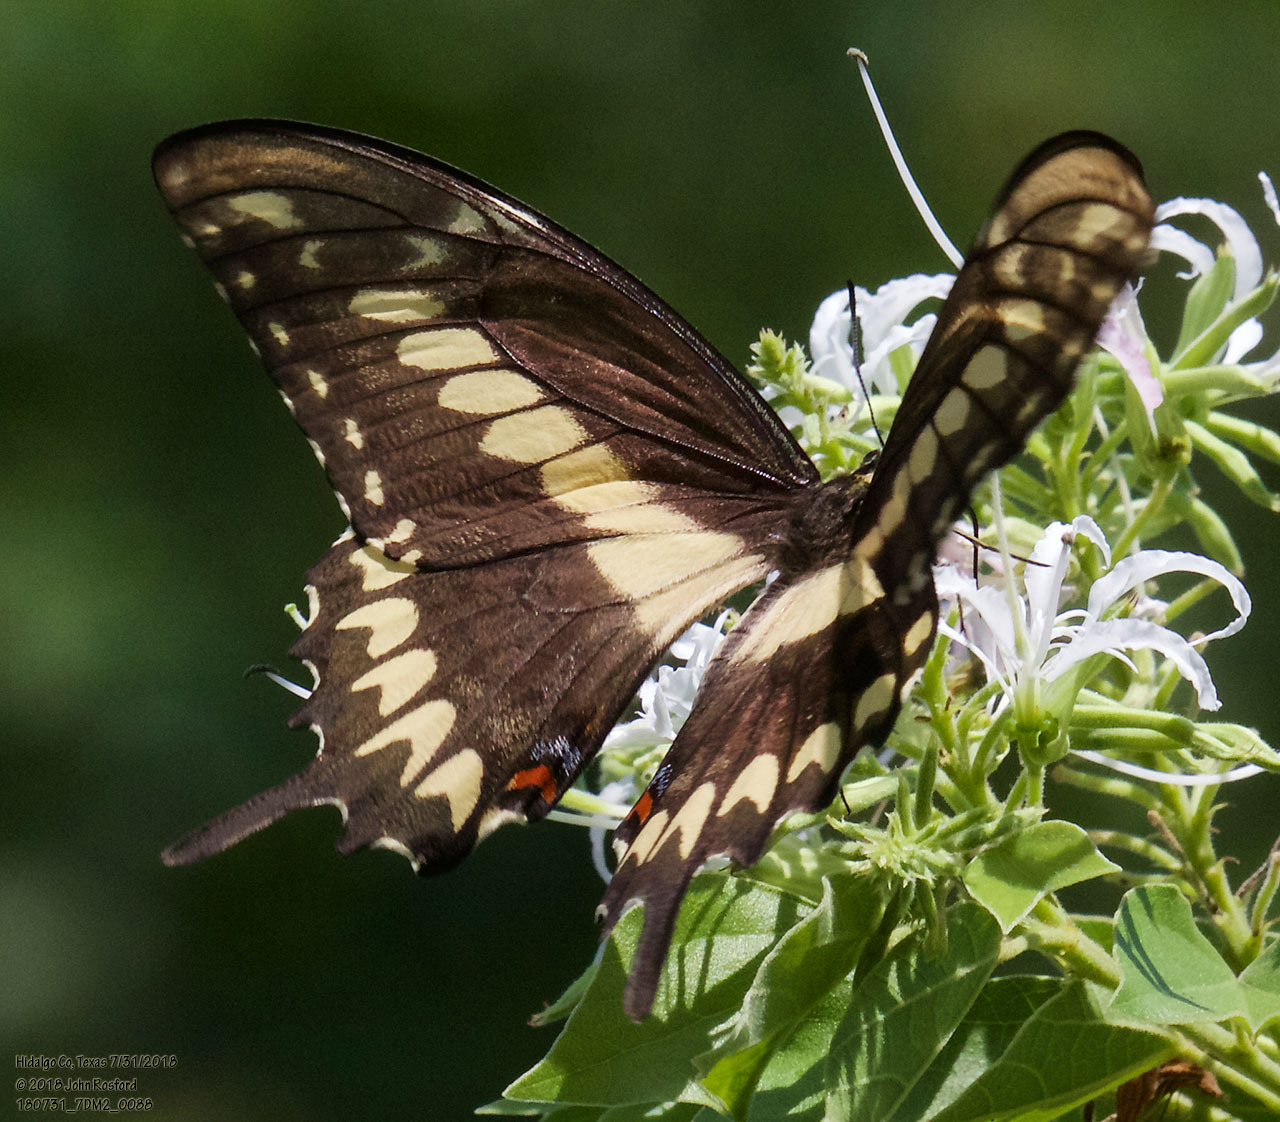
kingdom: Animalia
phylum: Arthropoda
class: Insecta
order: Lepidoptera
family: Papilionidae
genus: Papilio
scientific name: Papilio ornythion
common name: Ornythion swallowtail
